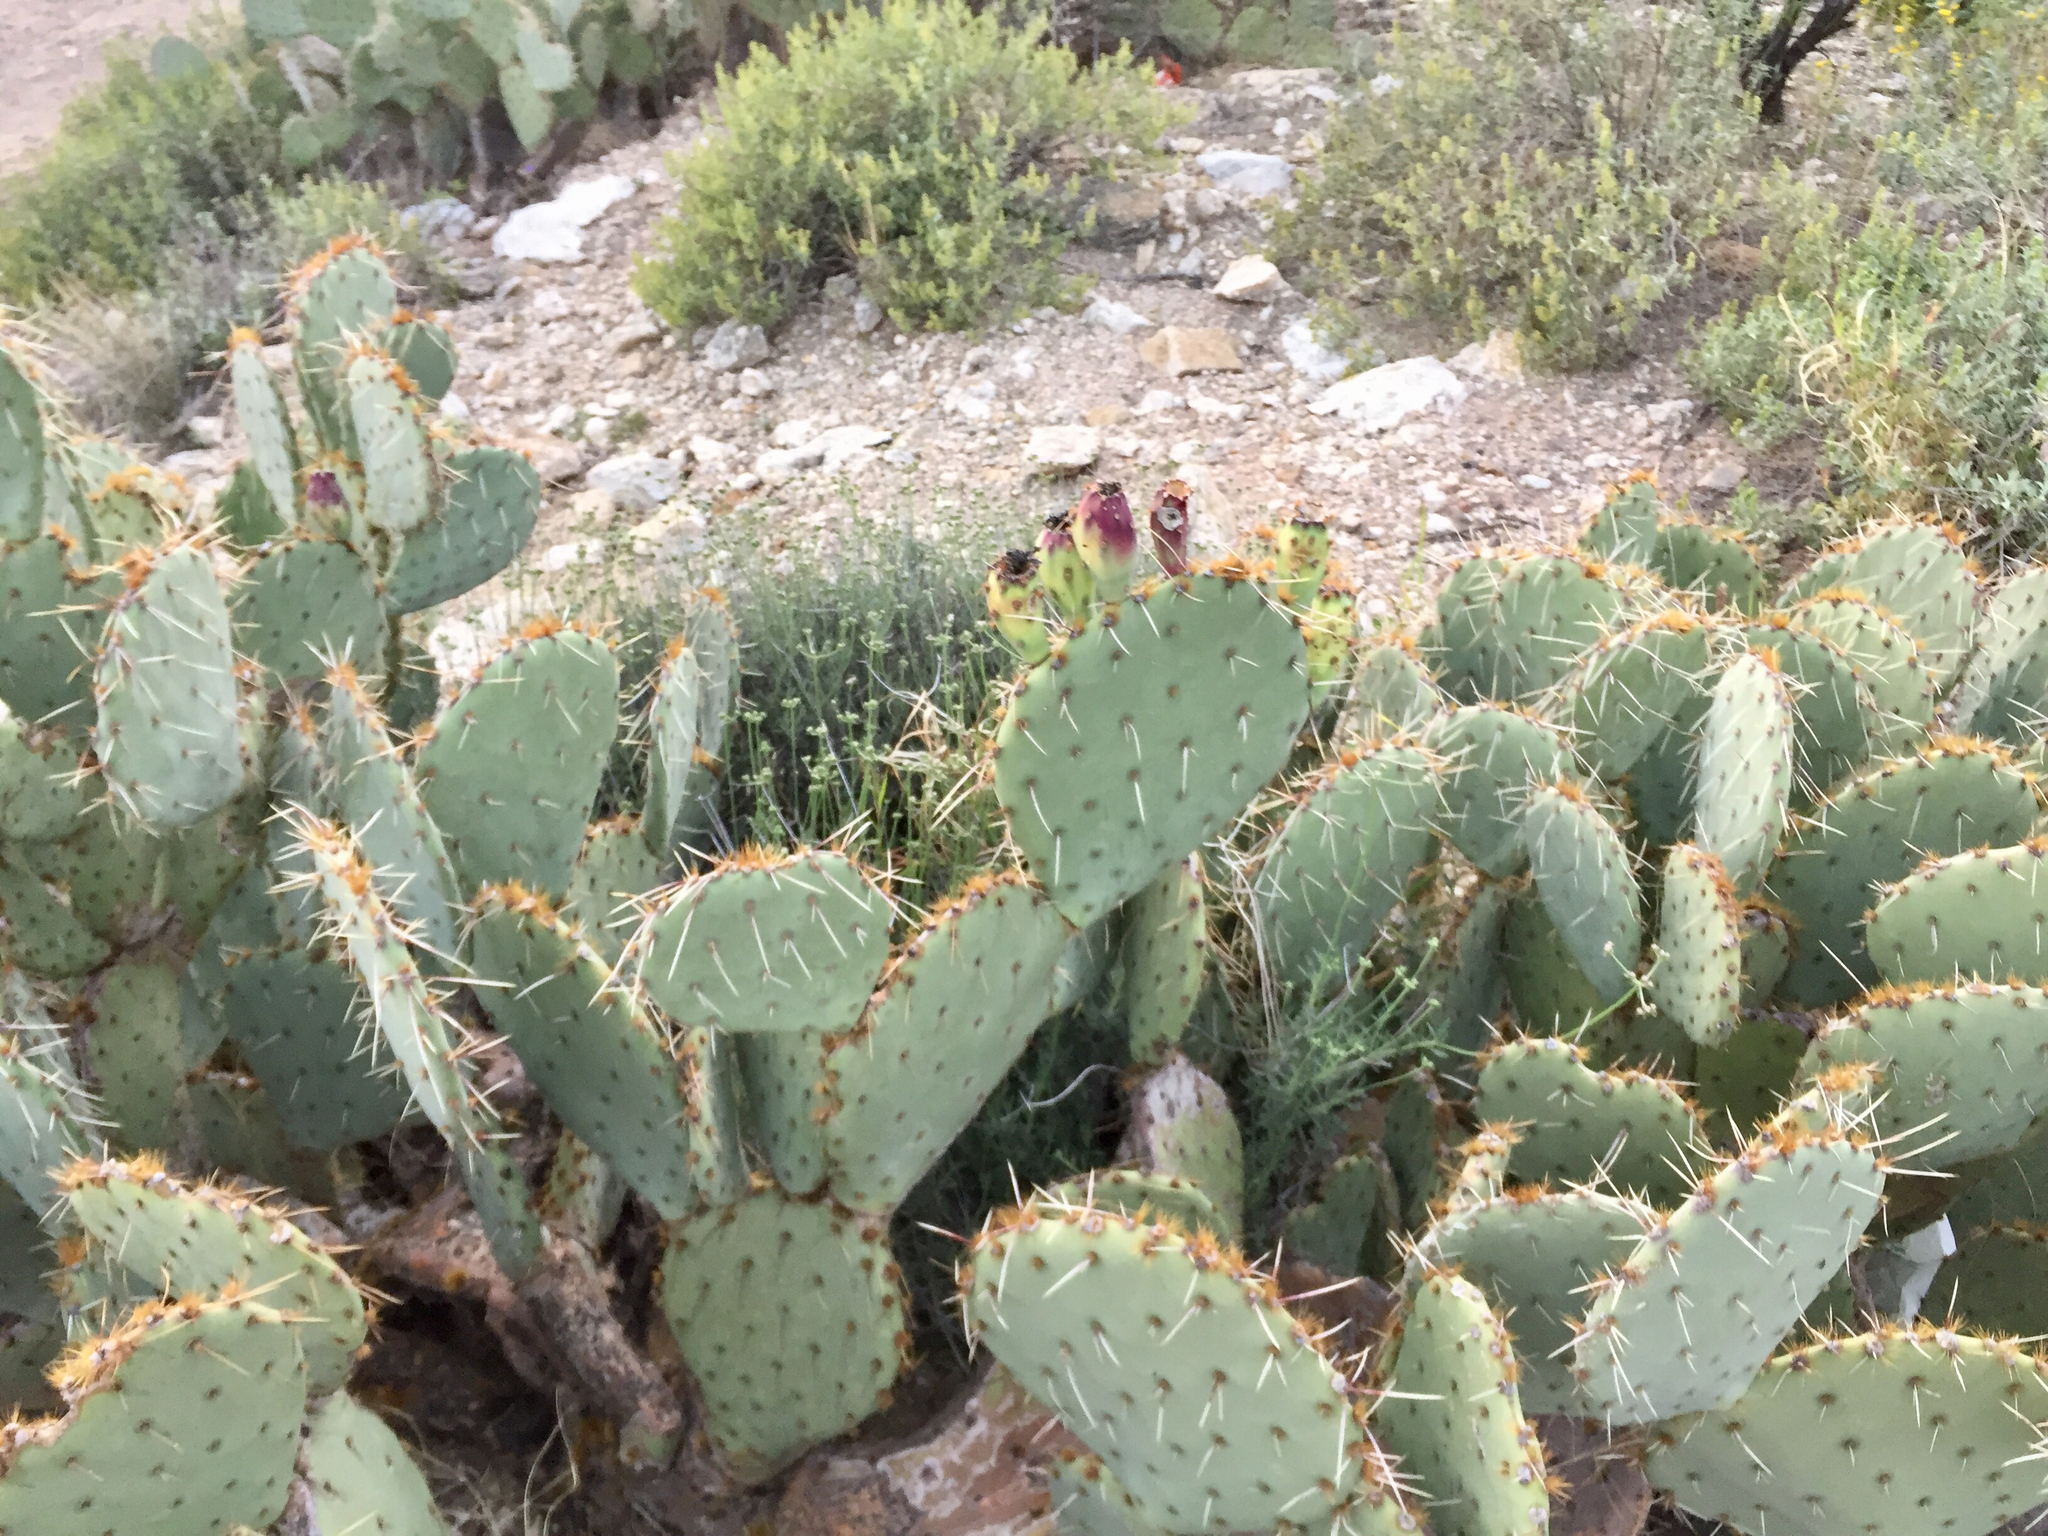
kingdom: Plantae
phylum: Tracheophyta
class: Magnoliopsida
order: Caryophyllales
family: Cactaceae
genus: Opuntia
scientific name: Opuntia engelmannii
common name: Cactus-apple
